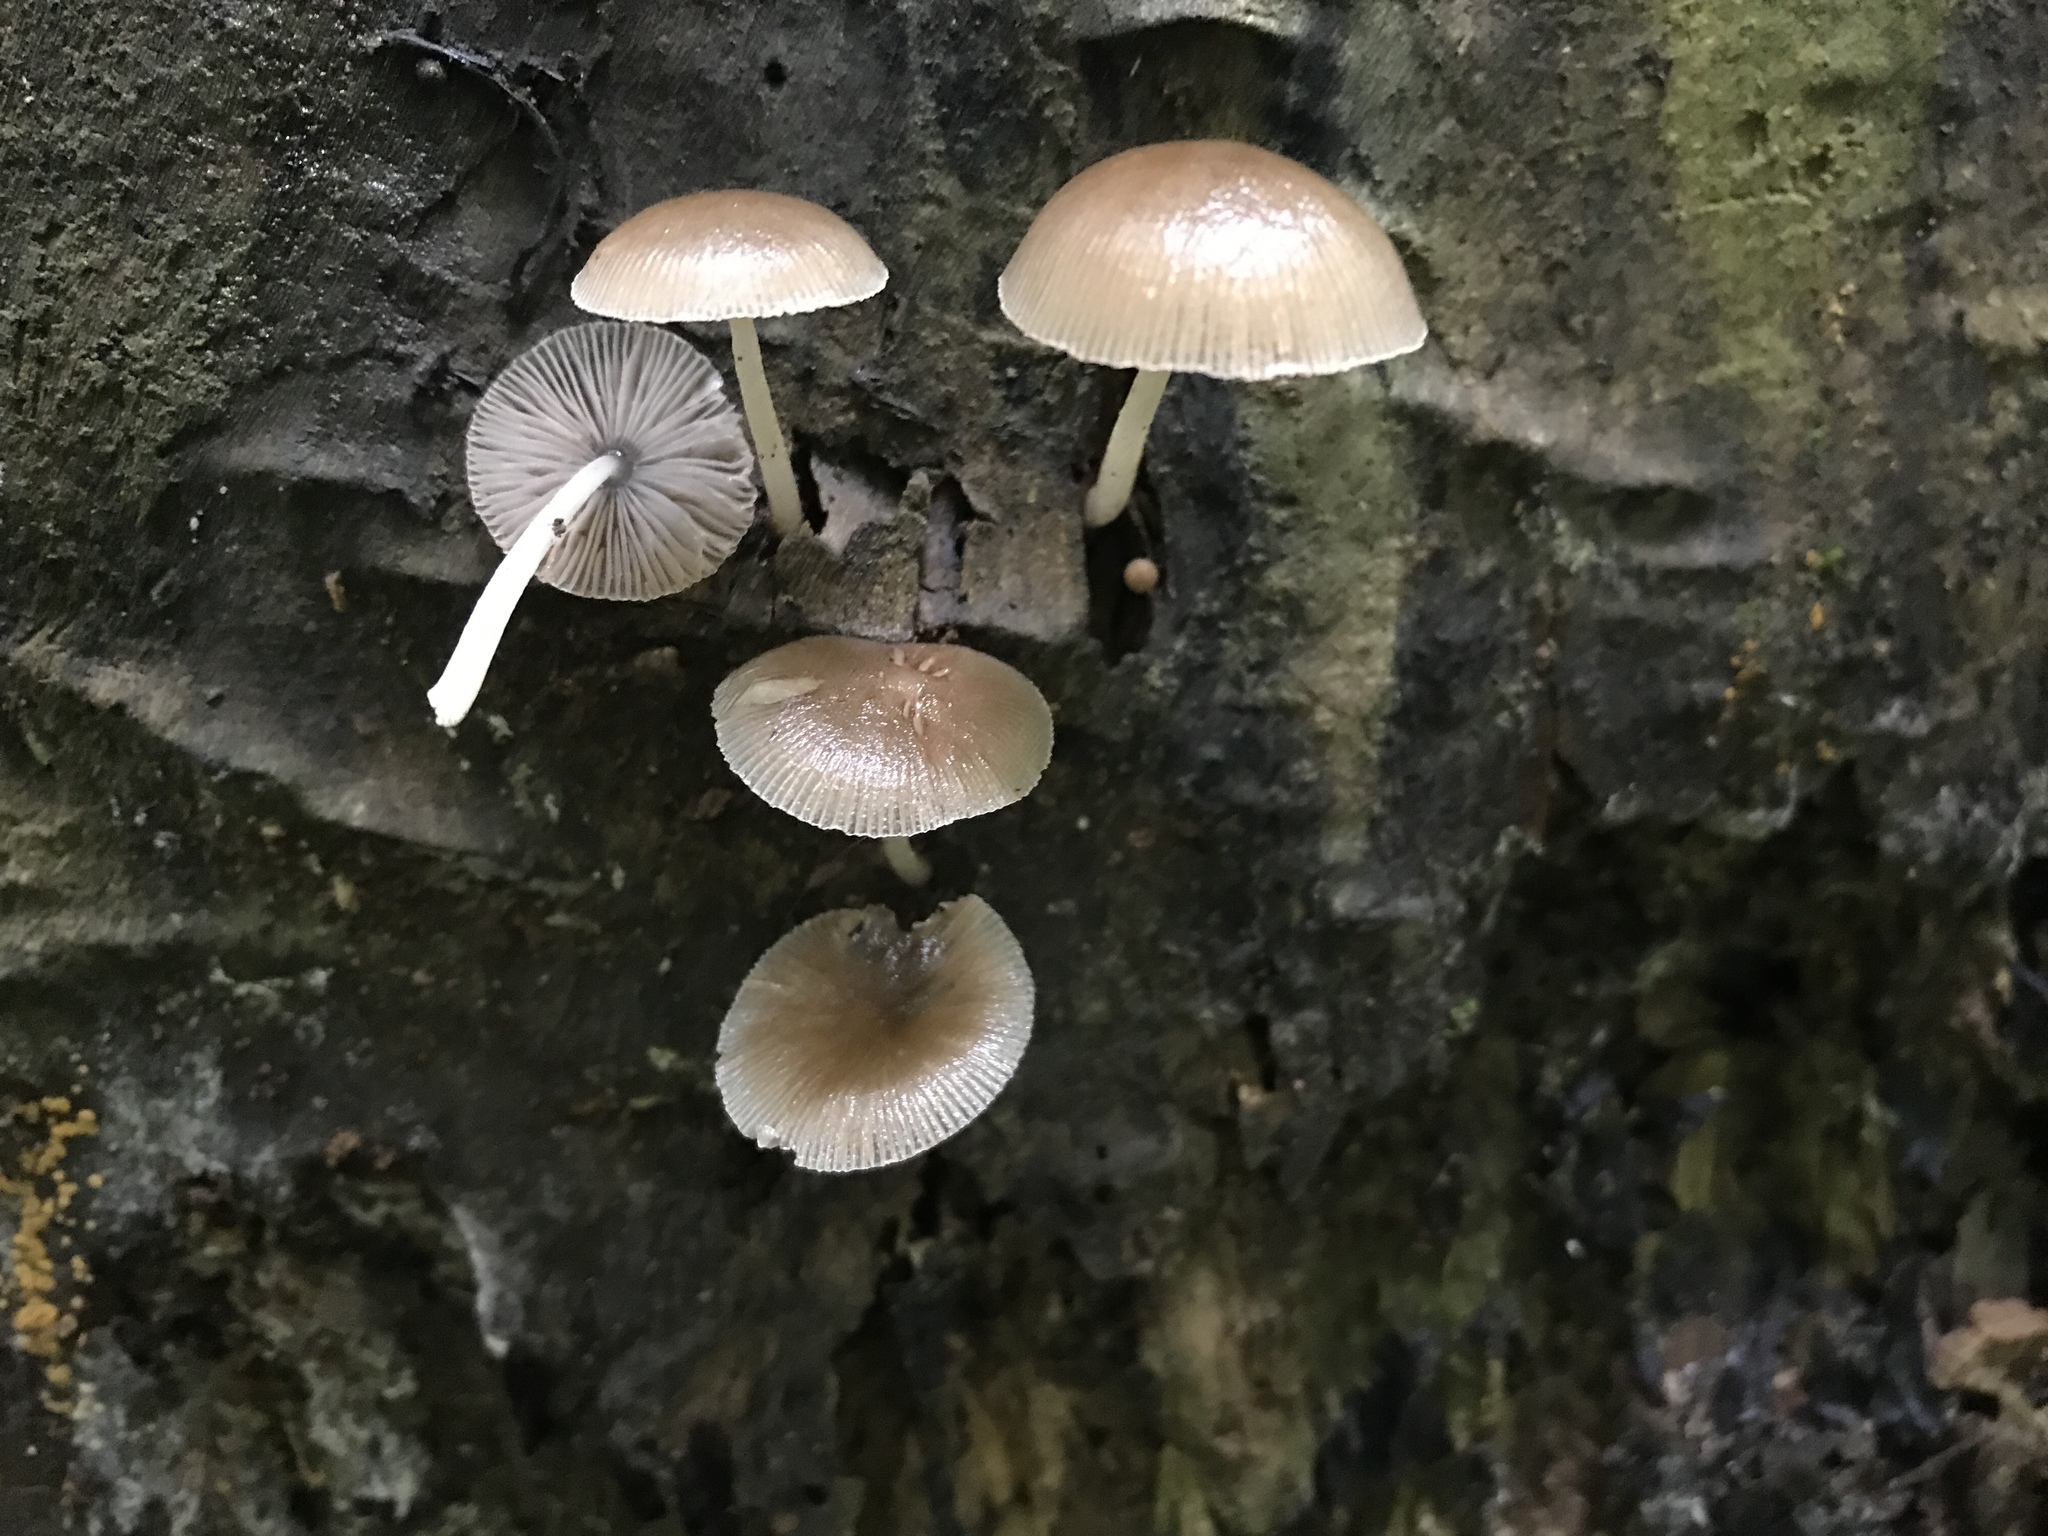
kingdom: Fungi
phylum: Basidiomycota
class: Agaricomycetes
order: Agaricales
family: Pluteaceae
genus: Pluteus
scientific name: Pluteus longistriatus
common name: Pleated pluteus
